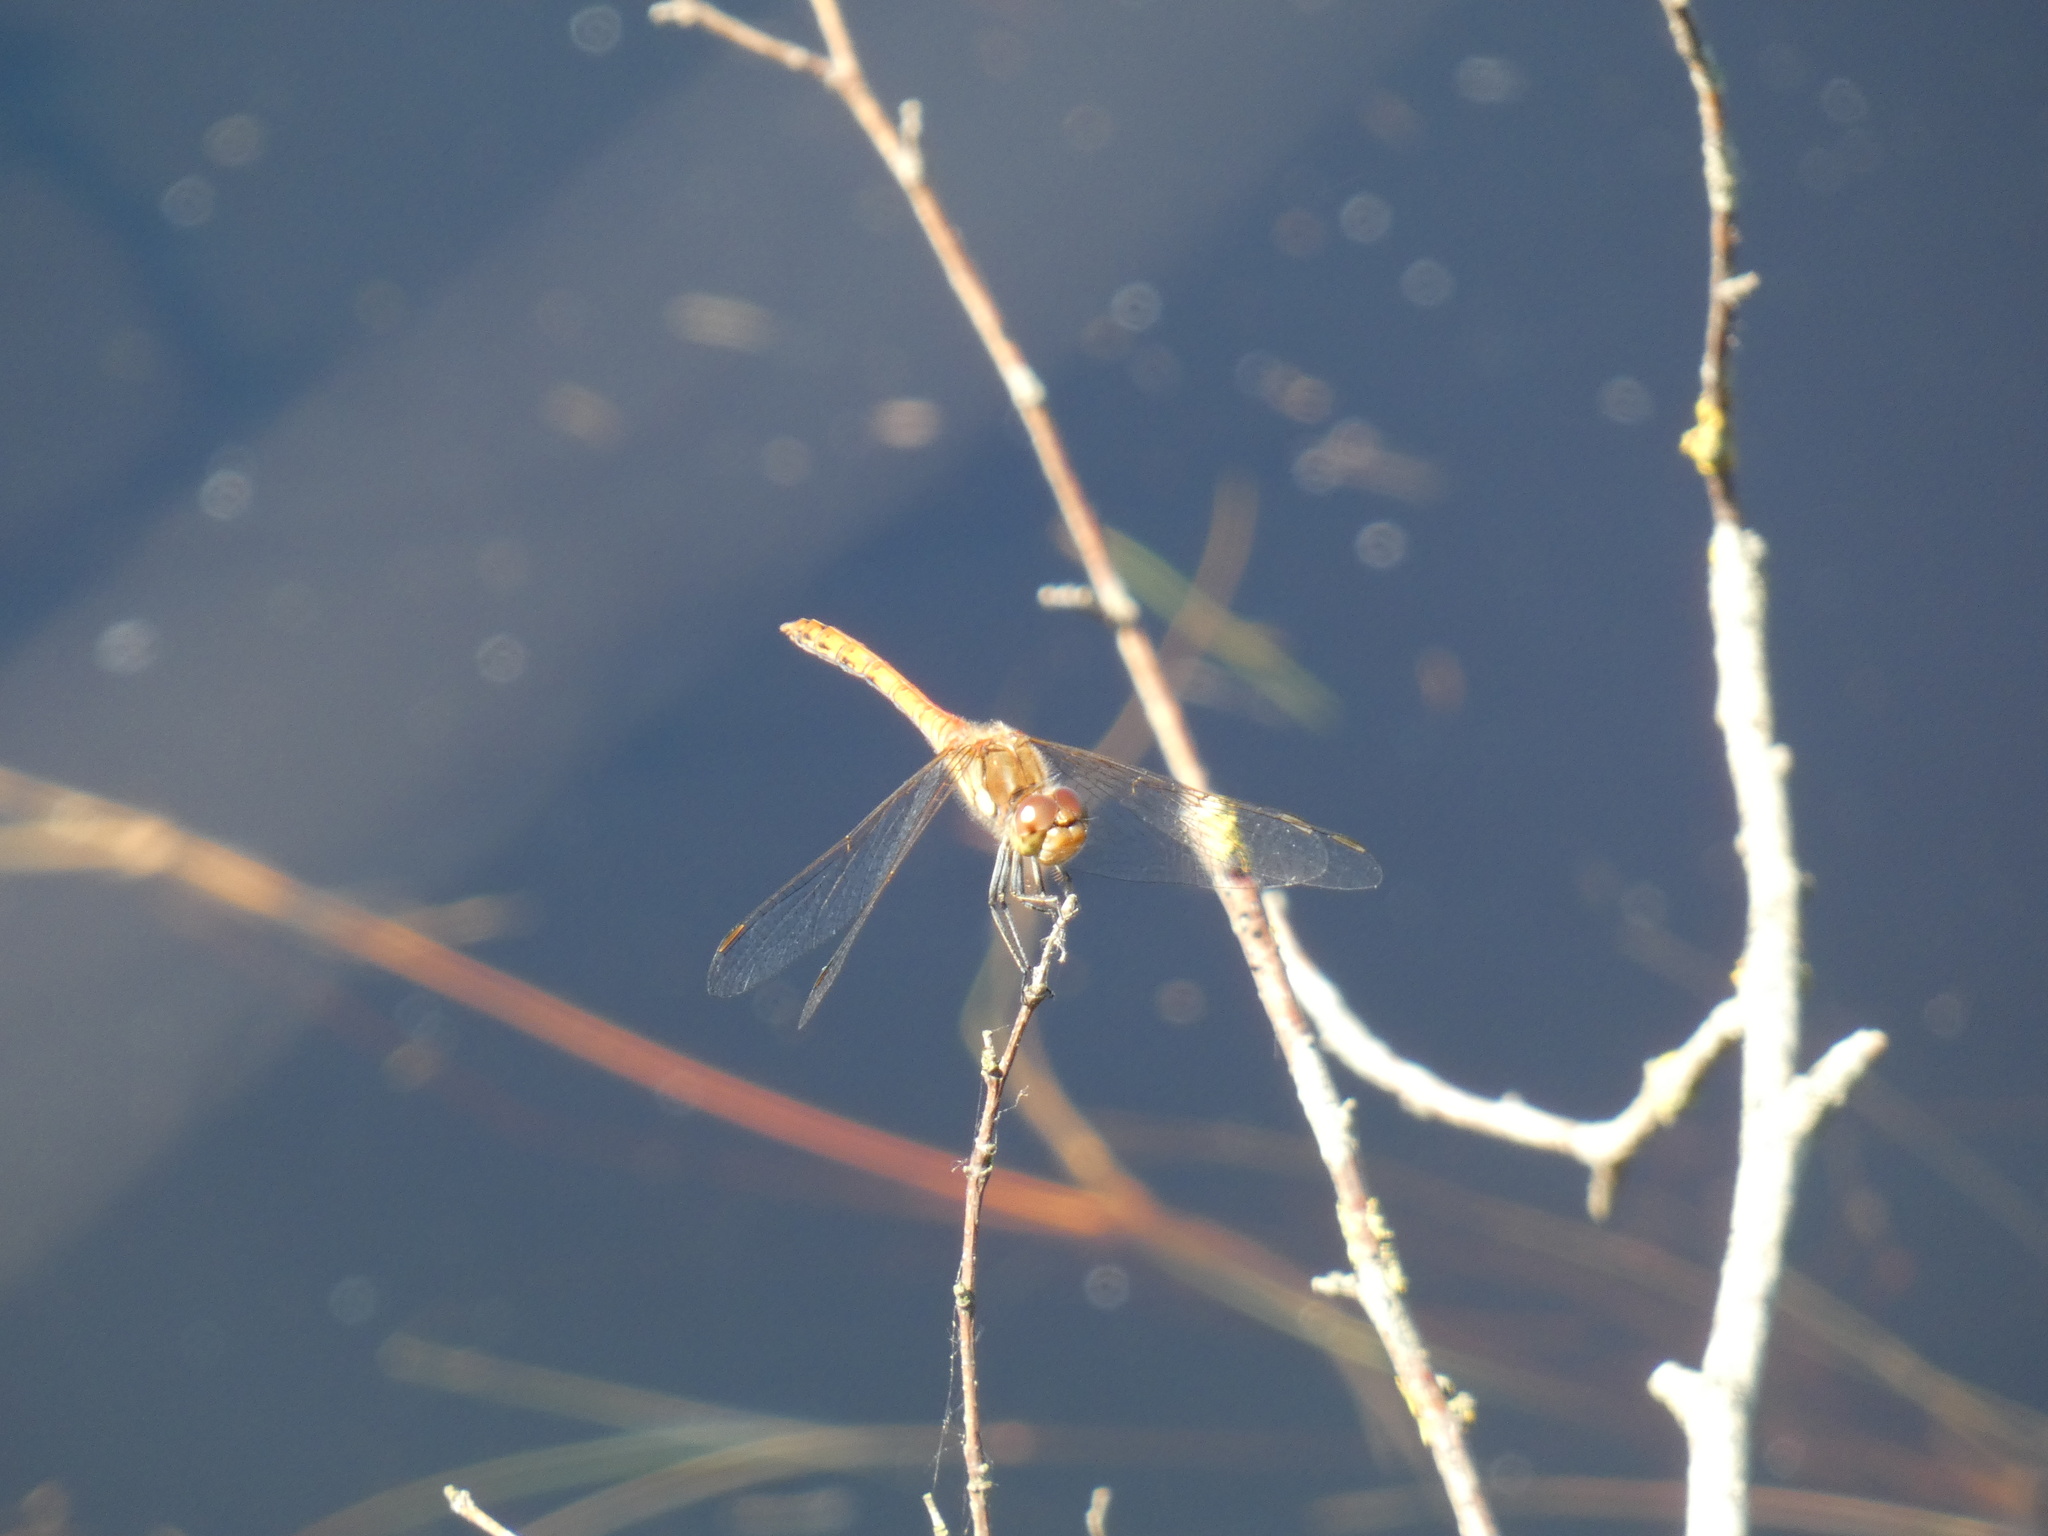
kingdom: Animalia
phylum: Arthropoda
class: Insecta
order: Odonata
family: Libellulidae
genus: Sympetrum
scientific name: Sympetrum striolatum
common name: Common darter
